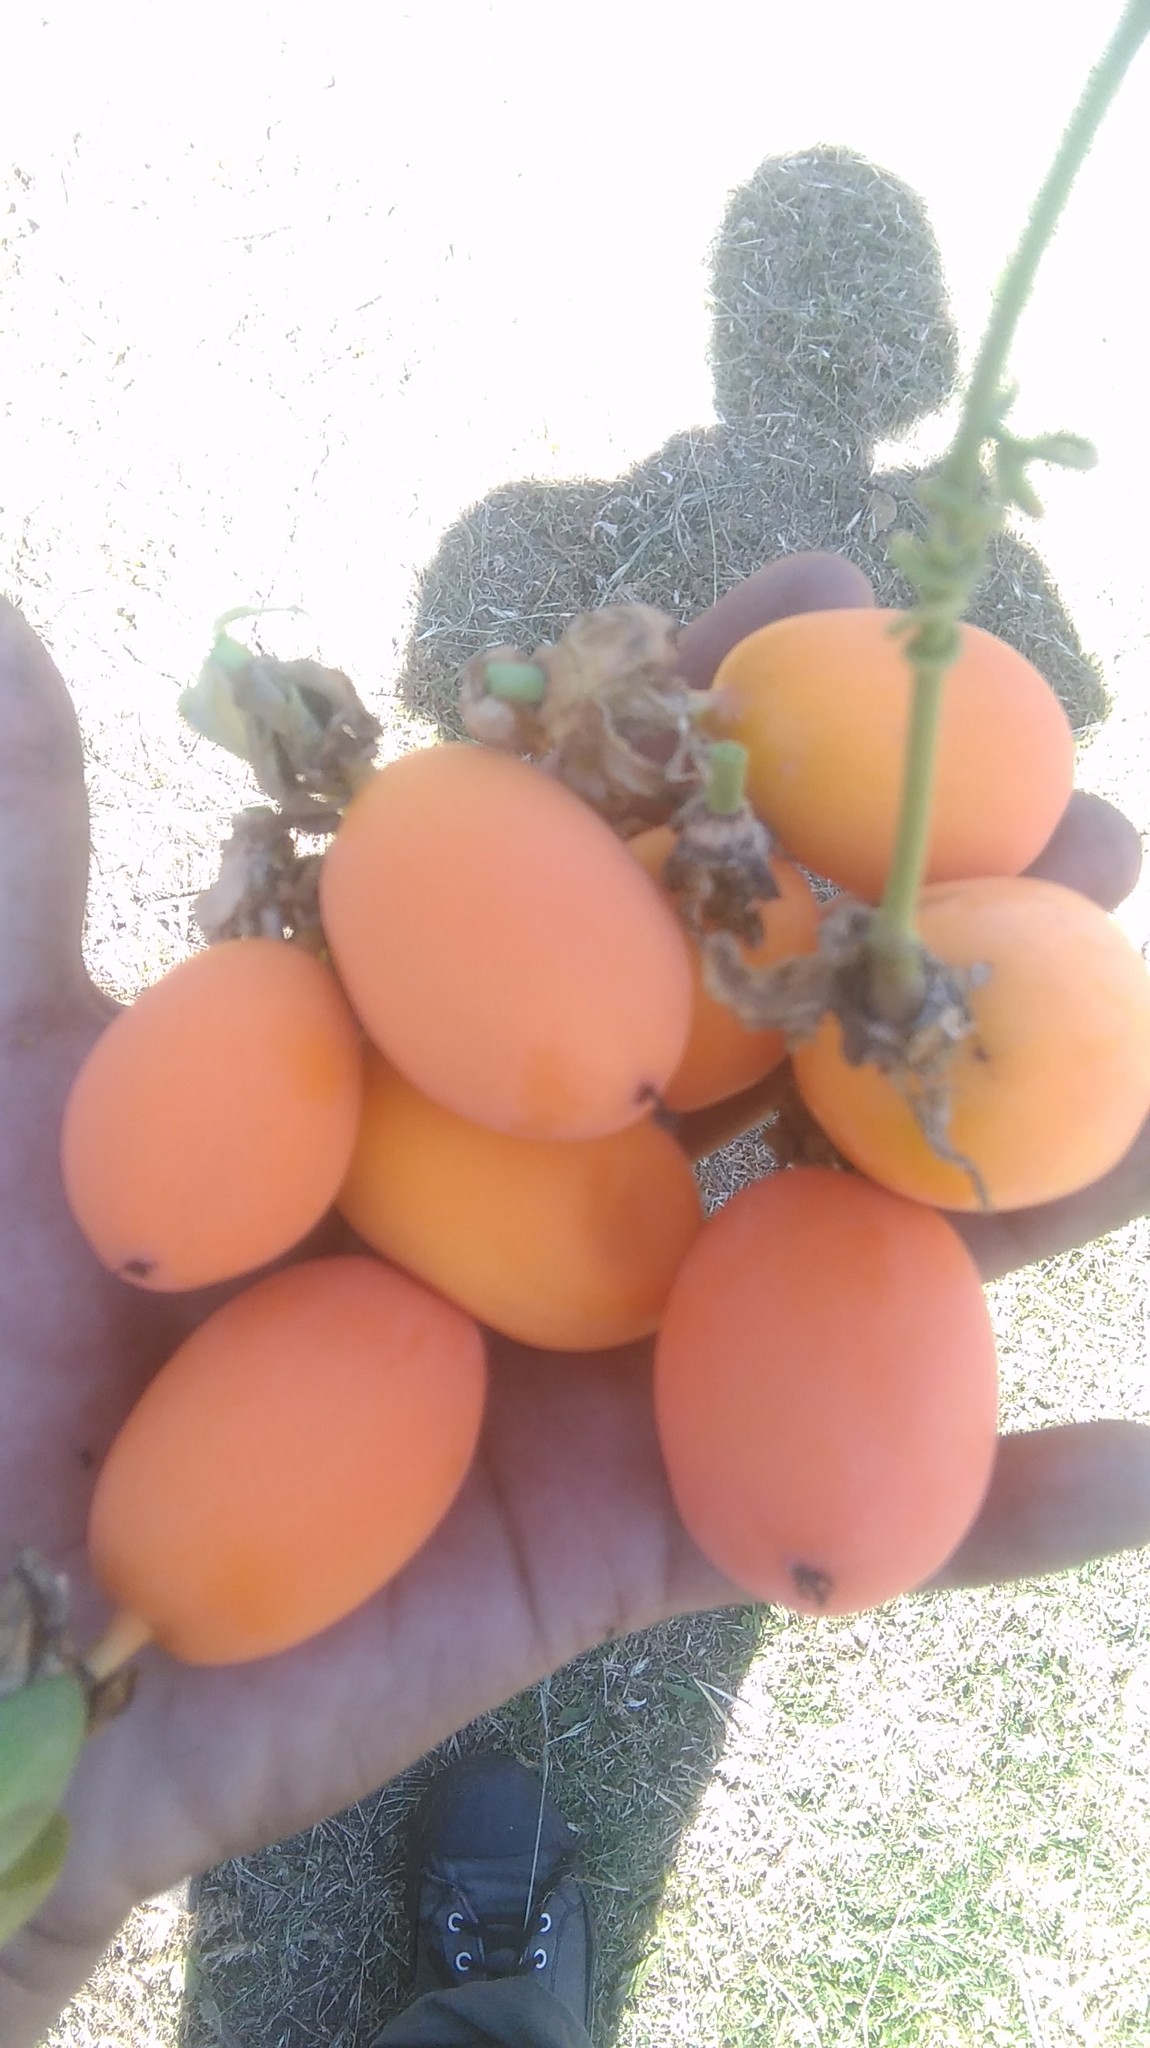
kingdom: Plantae
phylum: Tracheophyta
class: Magnoliopsida
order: Malpighiales
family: Passifloraceae
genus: Passiflora
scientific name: Passiflora caerulea
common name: Blue passionflower
